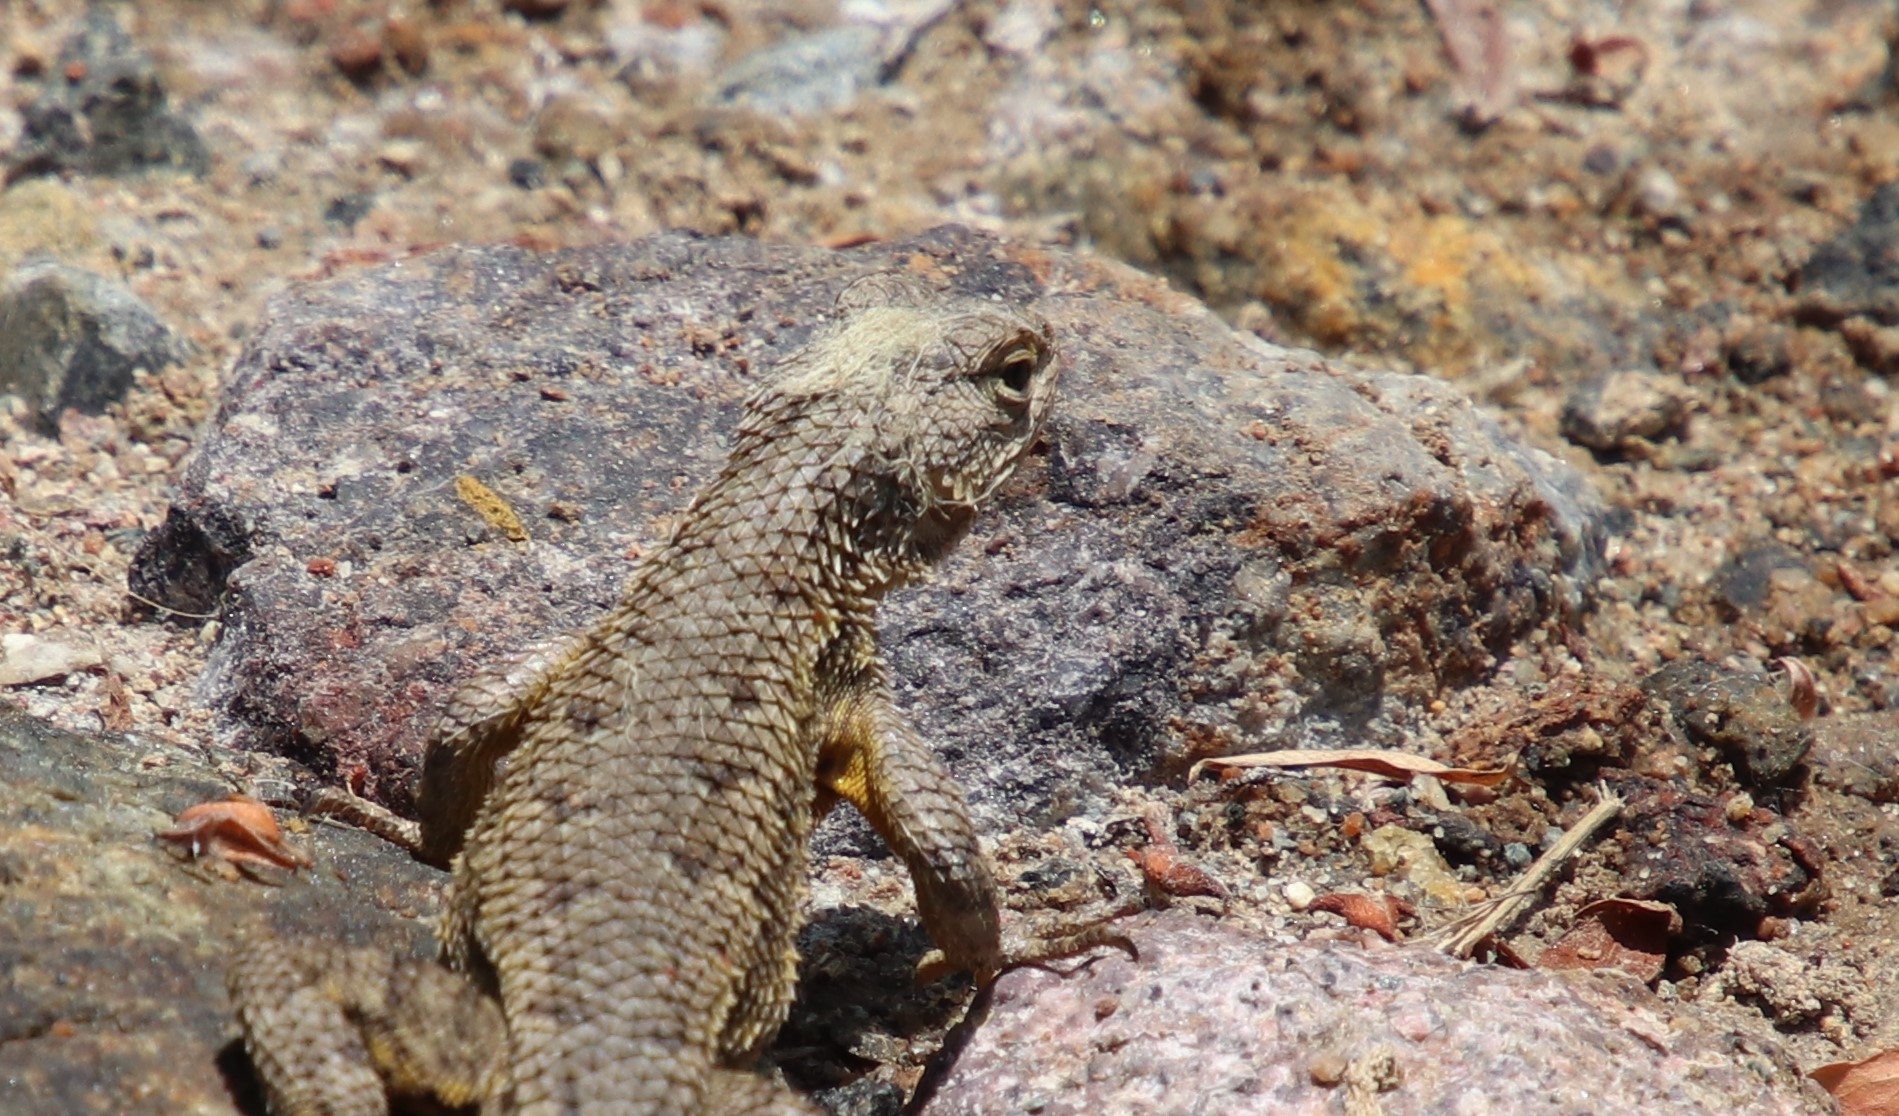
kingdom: Animalia
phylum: Chordata
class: Squamata
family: Phrynosomatidae
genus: Sceloporus
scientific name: Sceloporus occidentalis
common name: Western fence lizard
